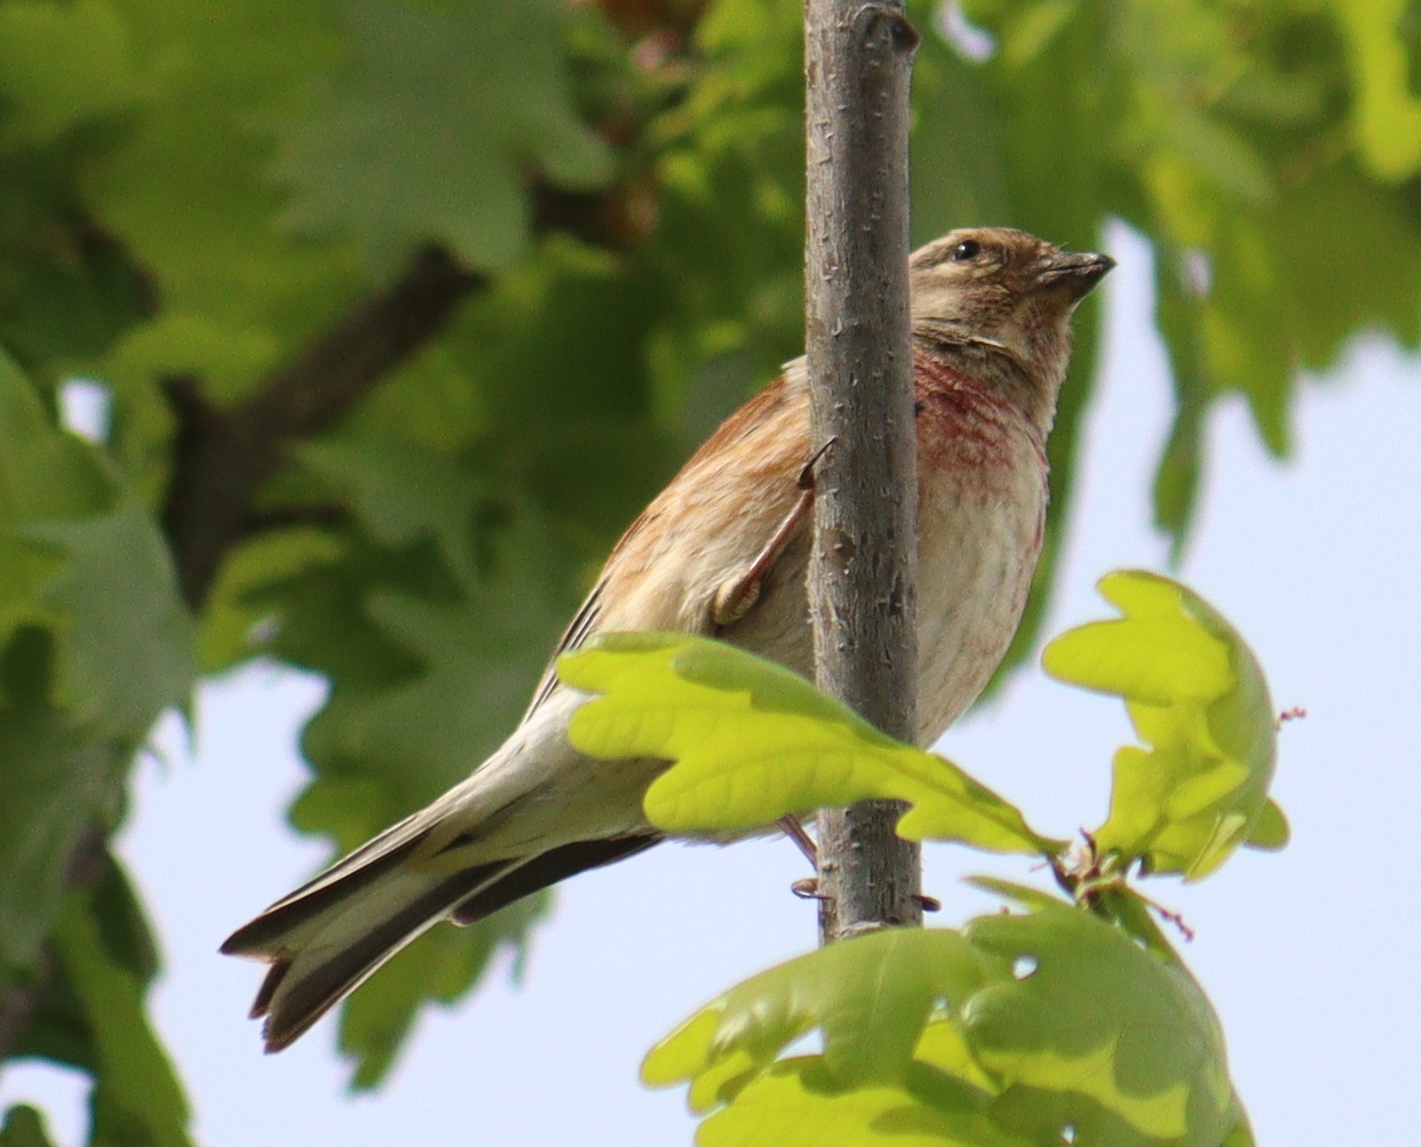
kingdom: Animalia
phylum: Chordata
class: Aves
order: Passeriformes
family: Fringillidae
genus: Linaria
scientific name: Linaria cannabina
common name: Common linnet
